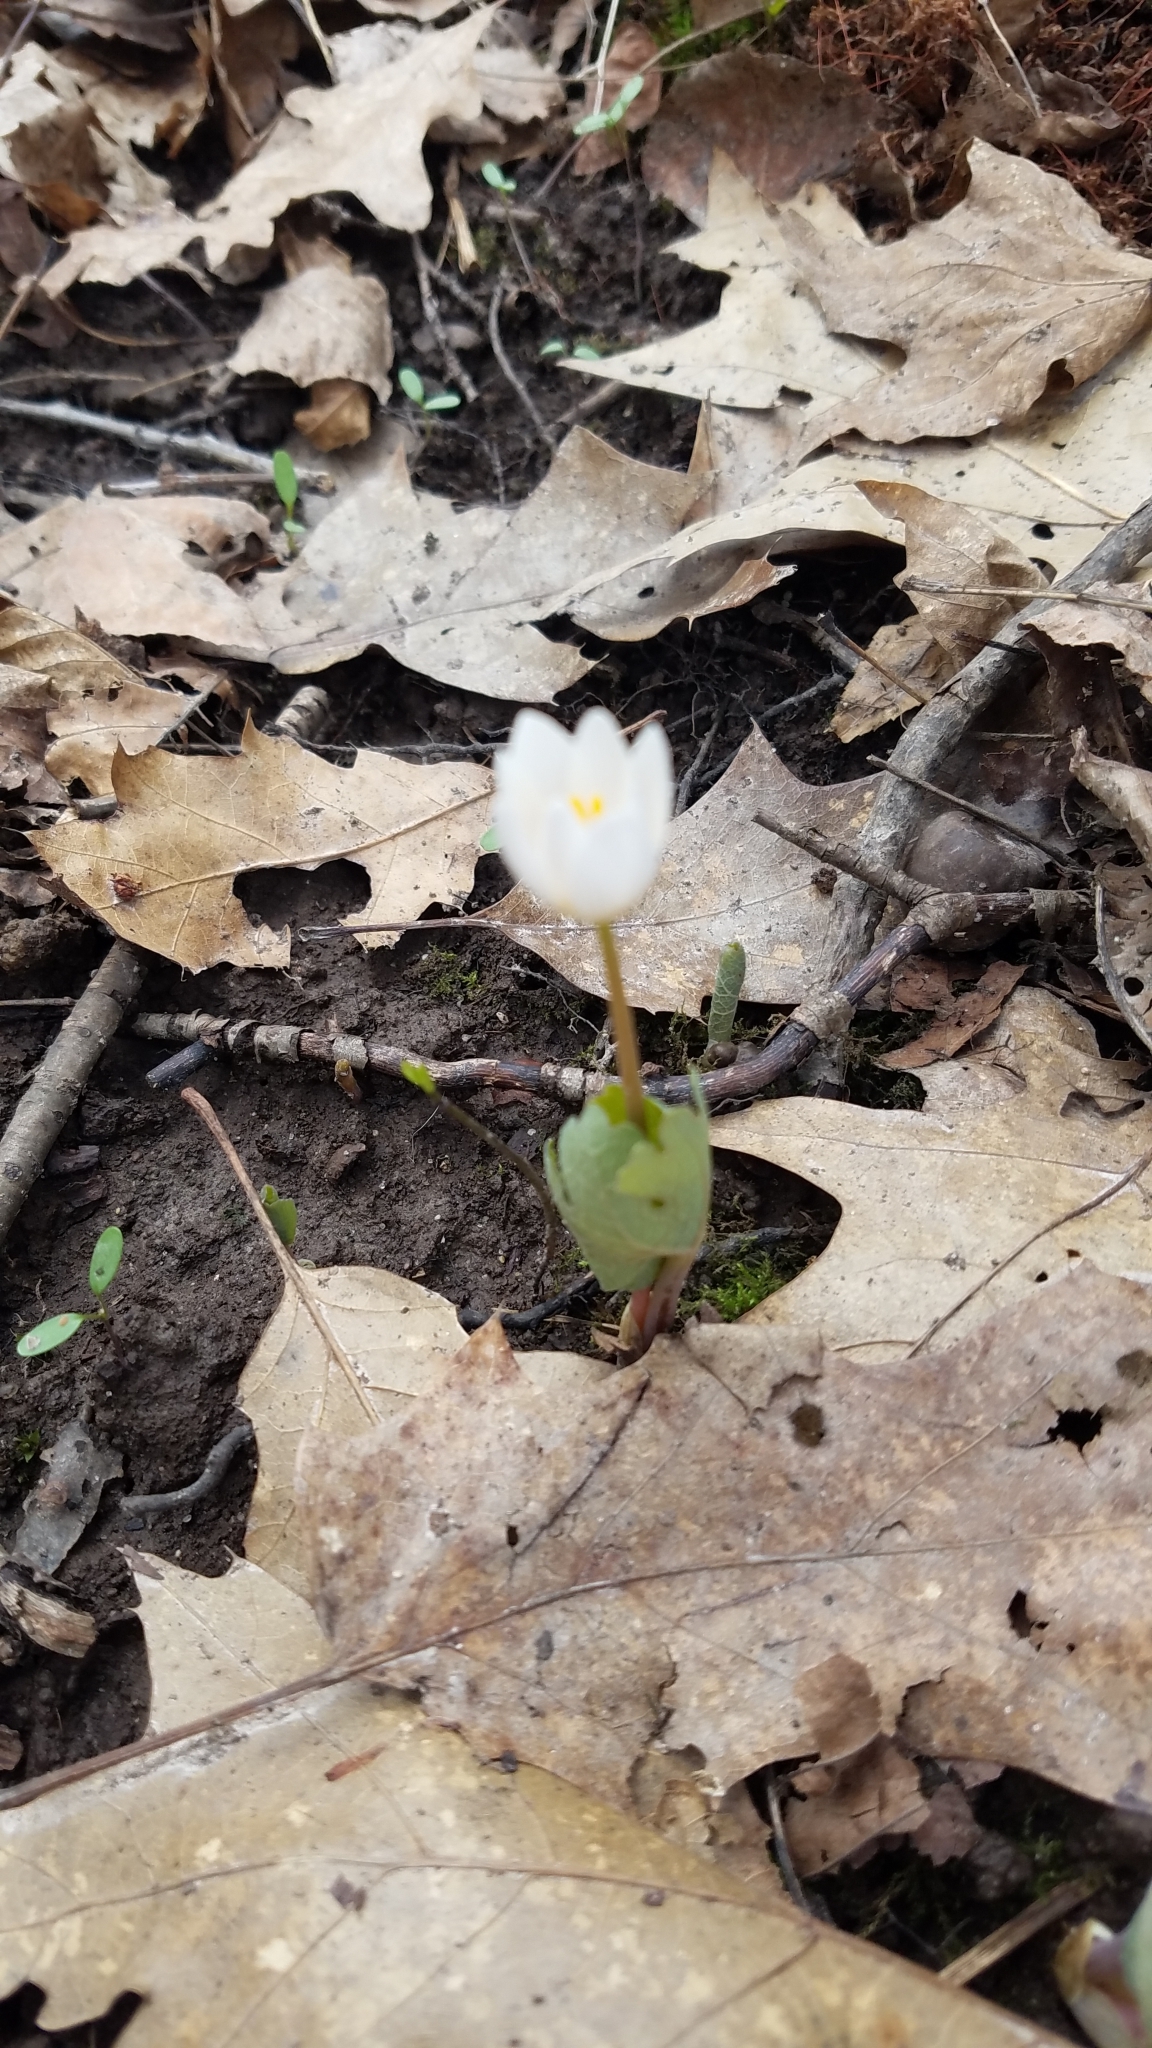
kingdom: Plantae
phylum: Tracheophyta
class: Magnoliopsida
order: Ranunculales
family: Papaveraceae
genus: Sanguinaria
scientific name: Sanguinaria canadensis
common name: Bloodroot
